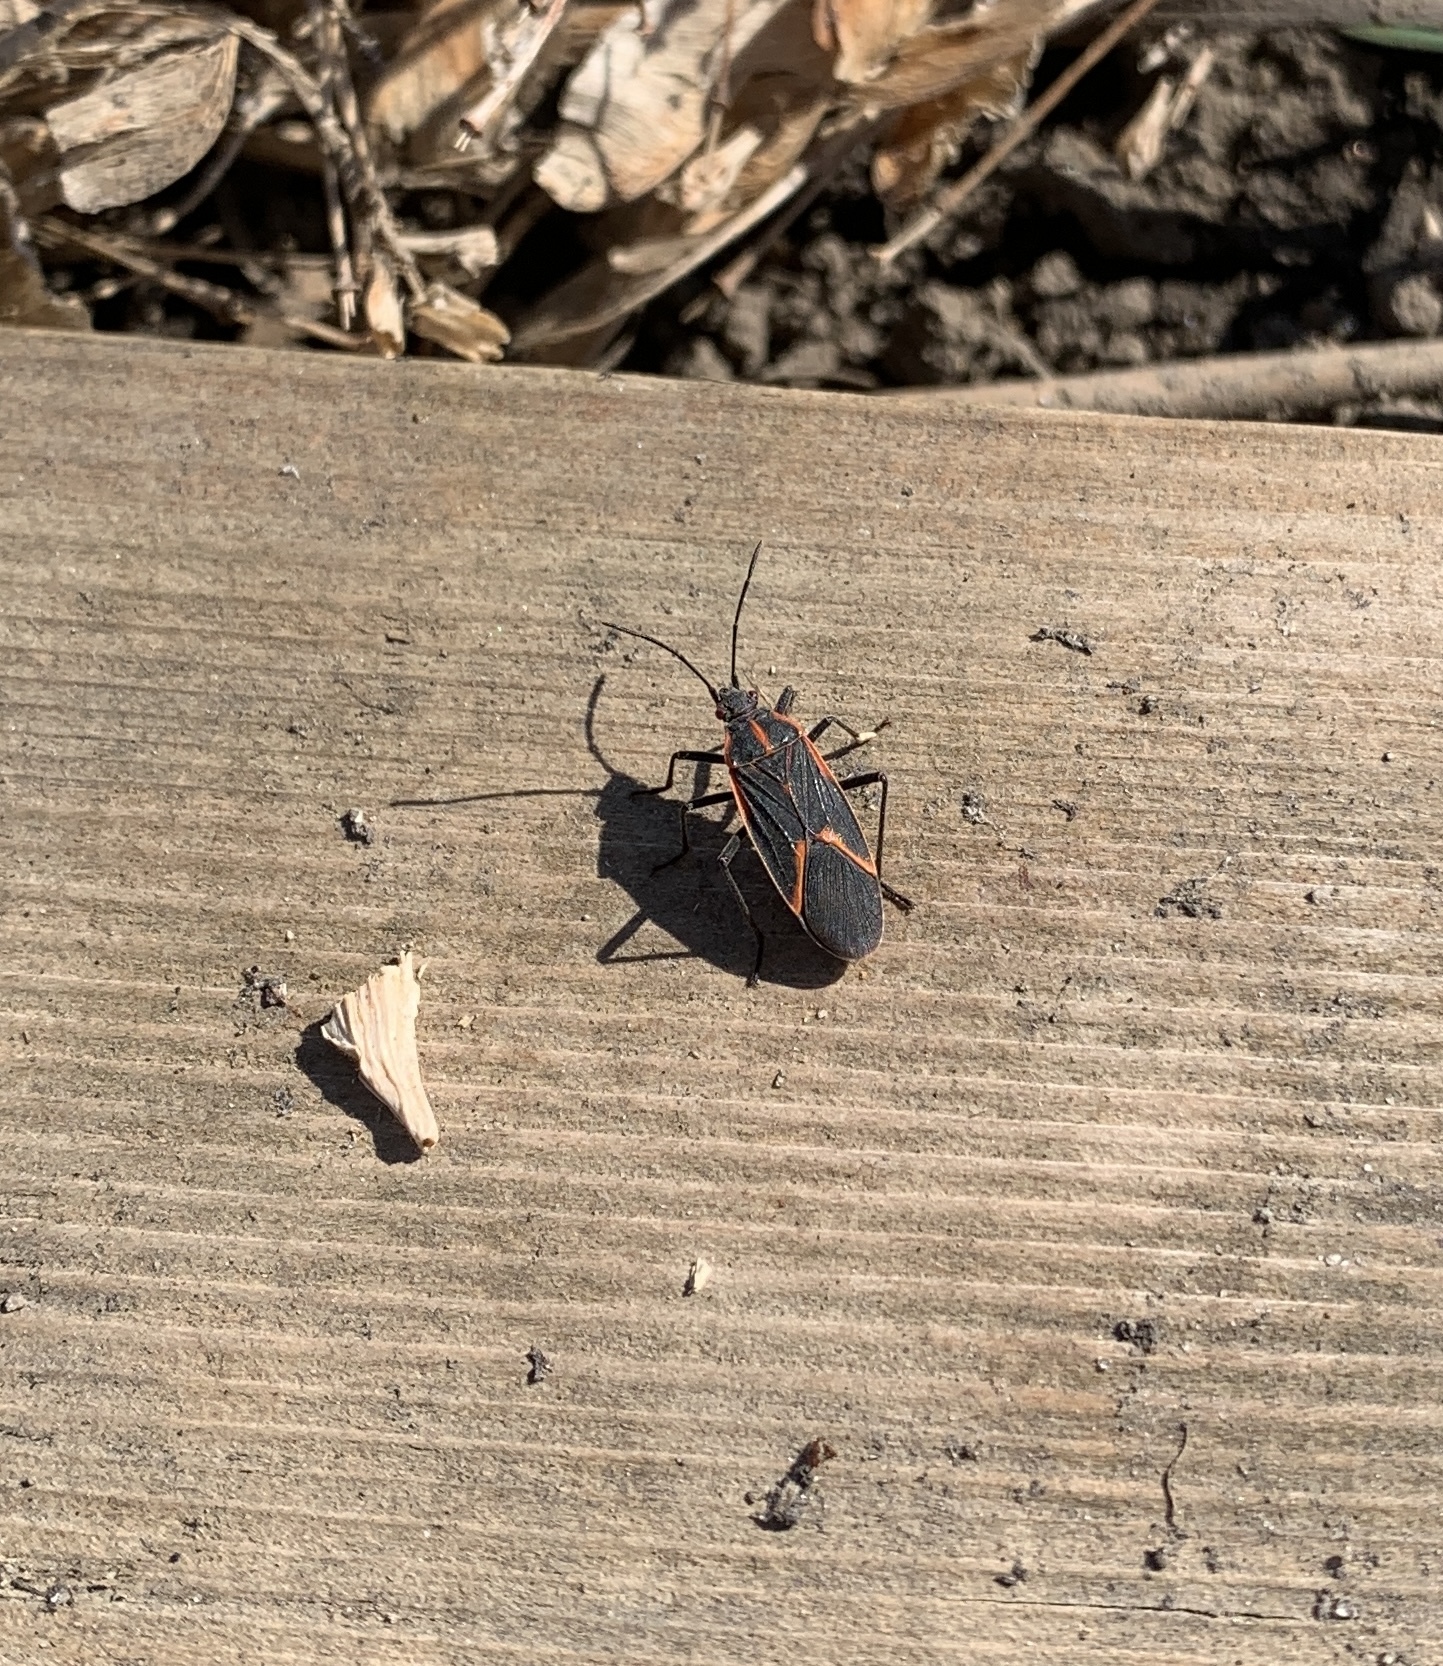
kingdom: Animalia
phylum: Arthropoda
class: Insecta
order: Hemiptera
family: Rhopalidae
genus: Boisea
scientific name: Boisea trivittata
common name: Boxelder bug
